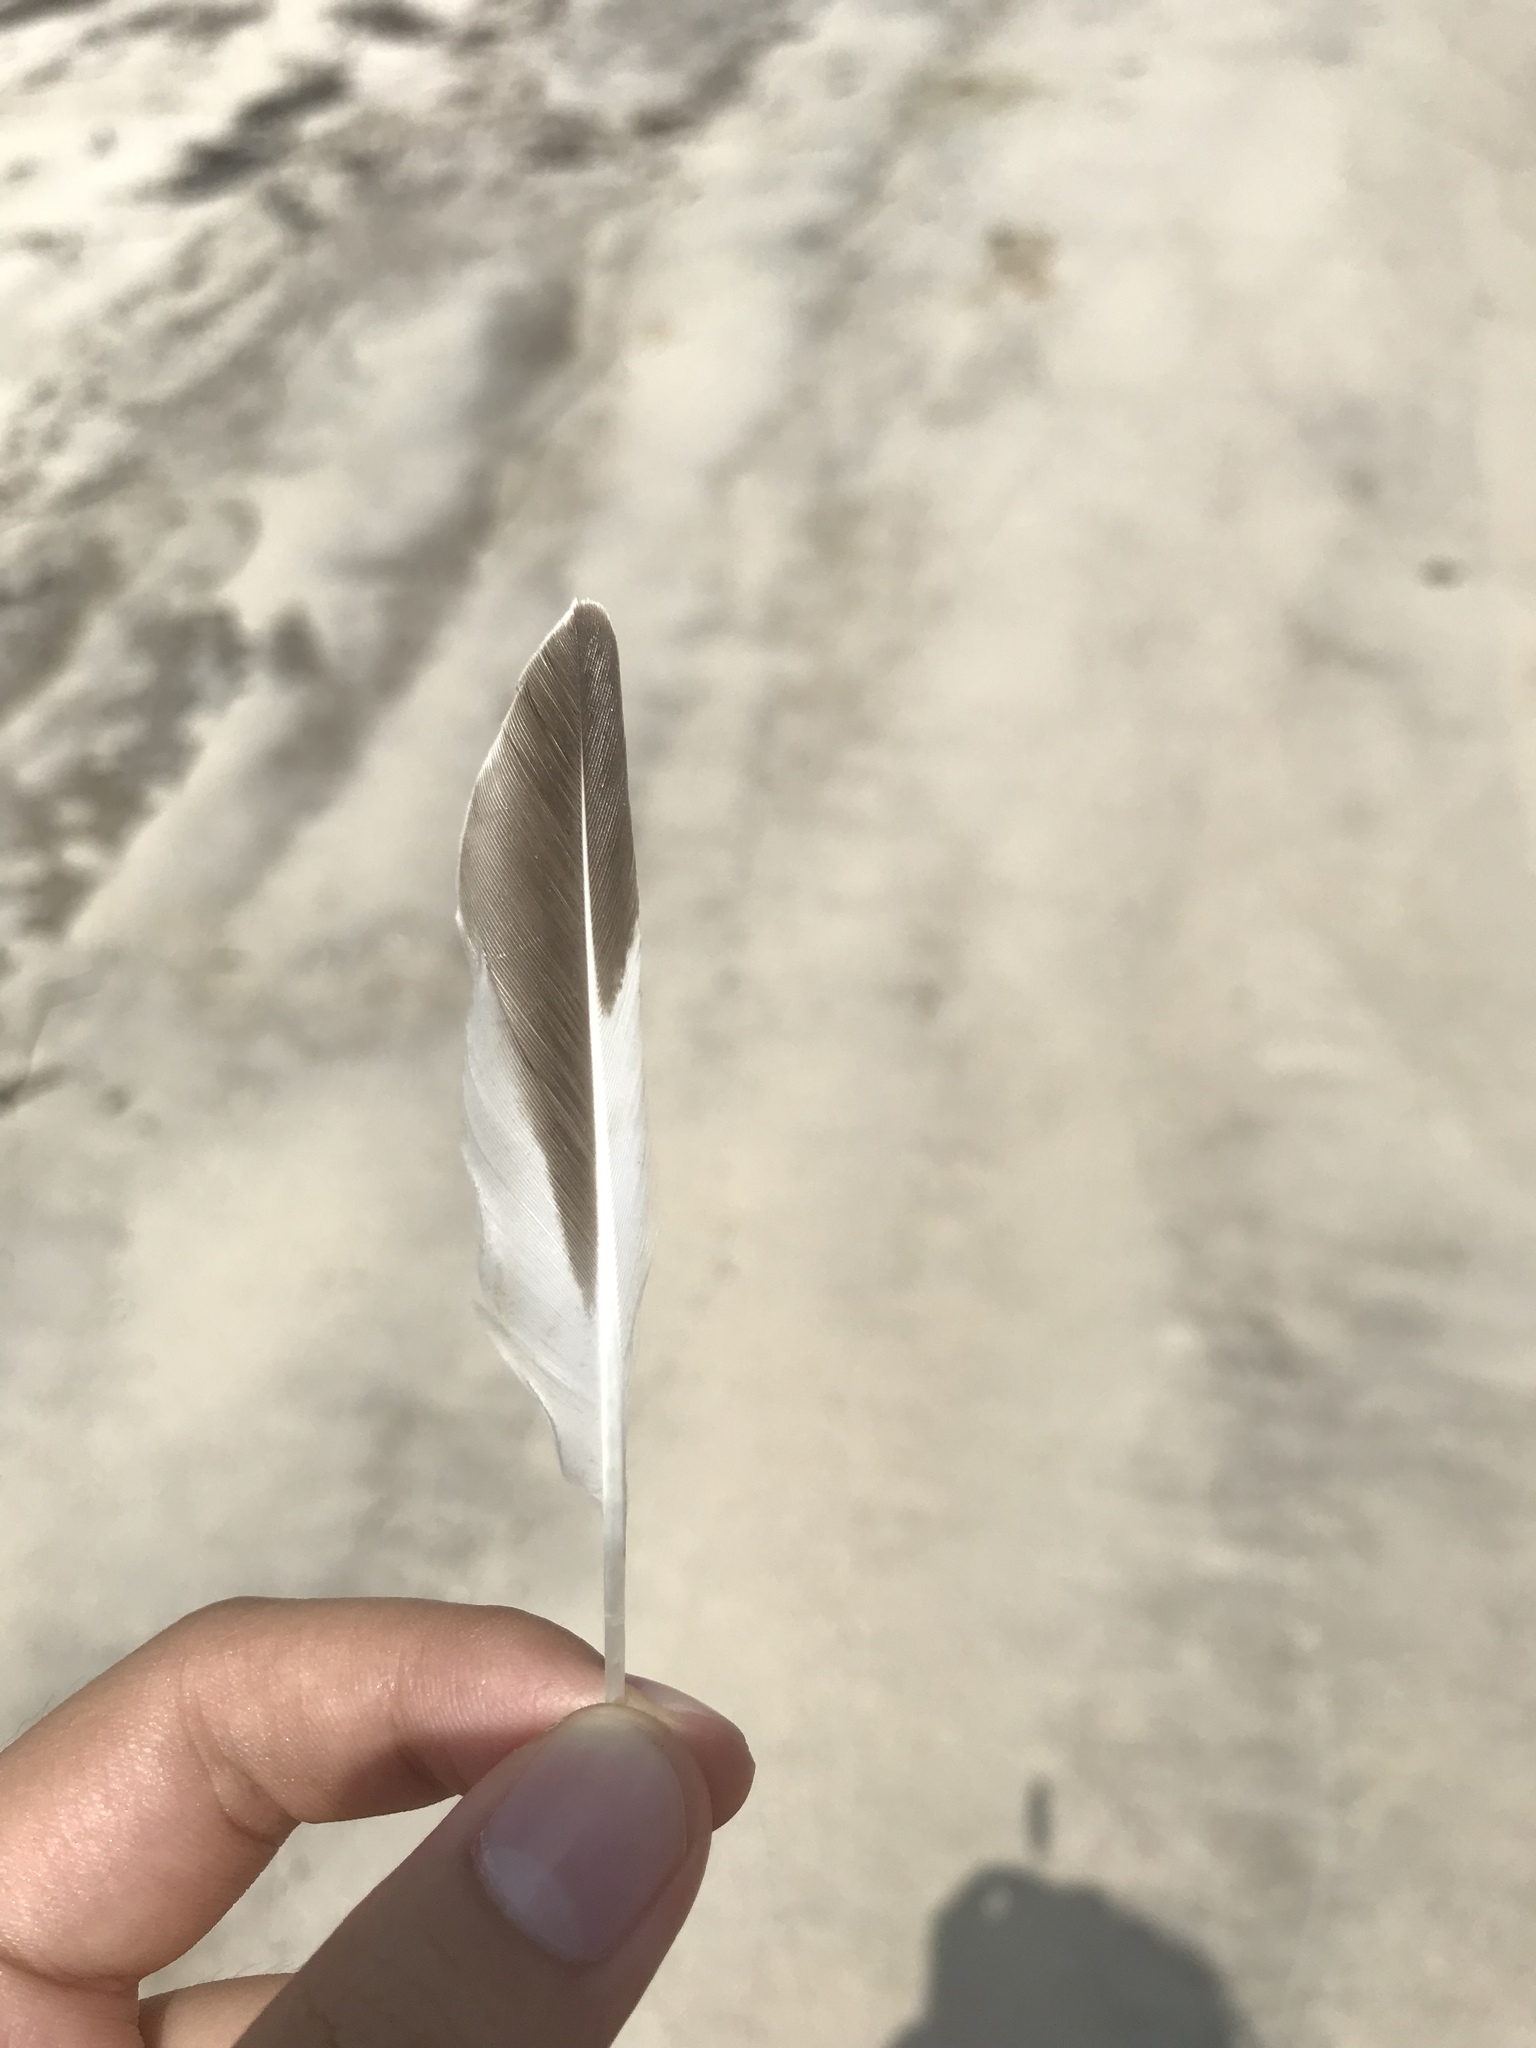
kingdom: Animalia
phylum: Chordata
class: Aves
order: Charadriiformes
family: Scolopacidae
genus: Arenaria
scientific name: Arenaria interpres
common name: Ruddy turnstone
